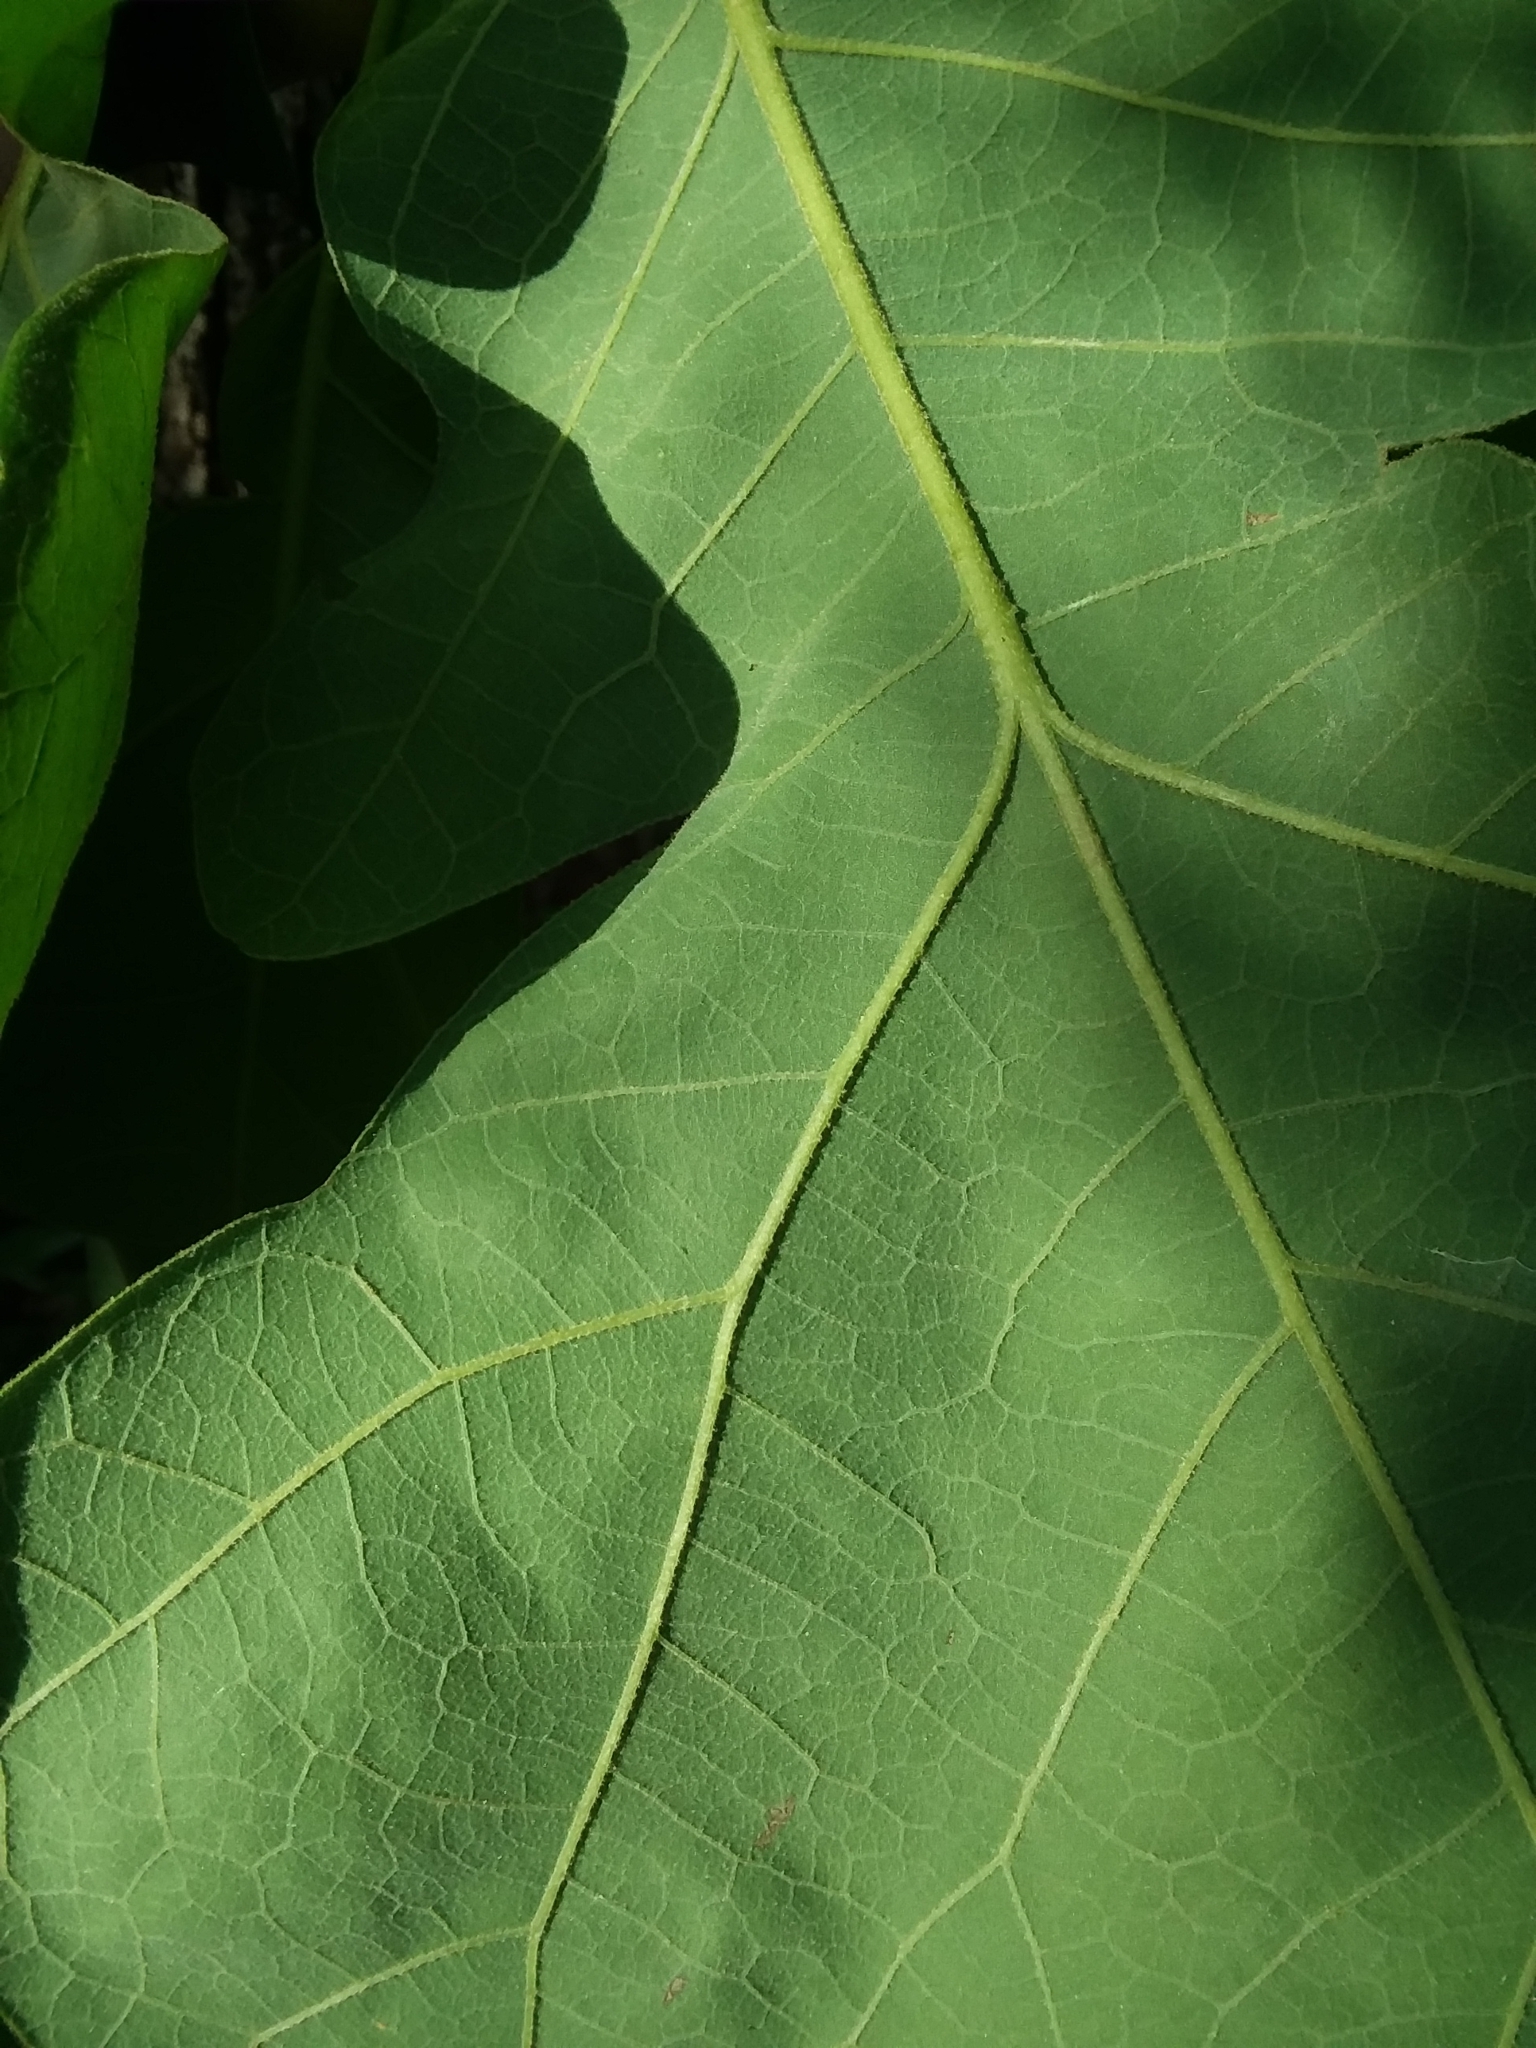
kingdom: Plantae
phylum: Tracheophyta
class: Magnoliopsida
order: Fagales
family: Fagaceae
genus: Quercus
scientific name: Quercus stellata
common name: Post oak
